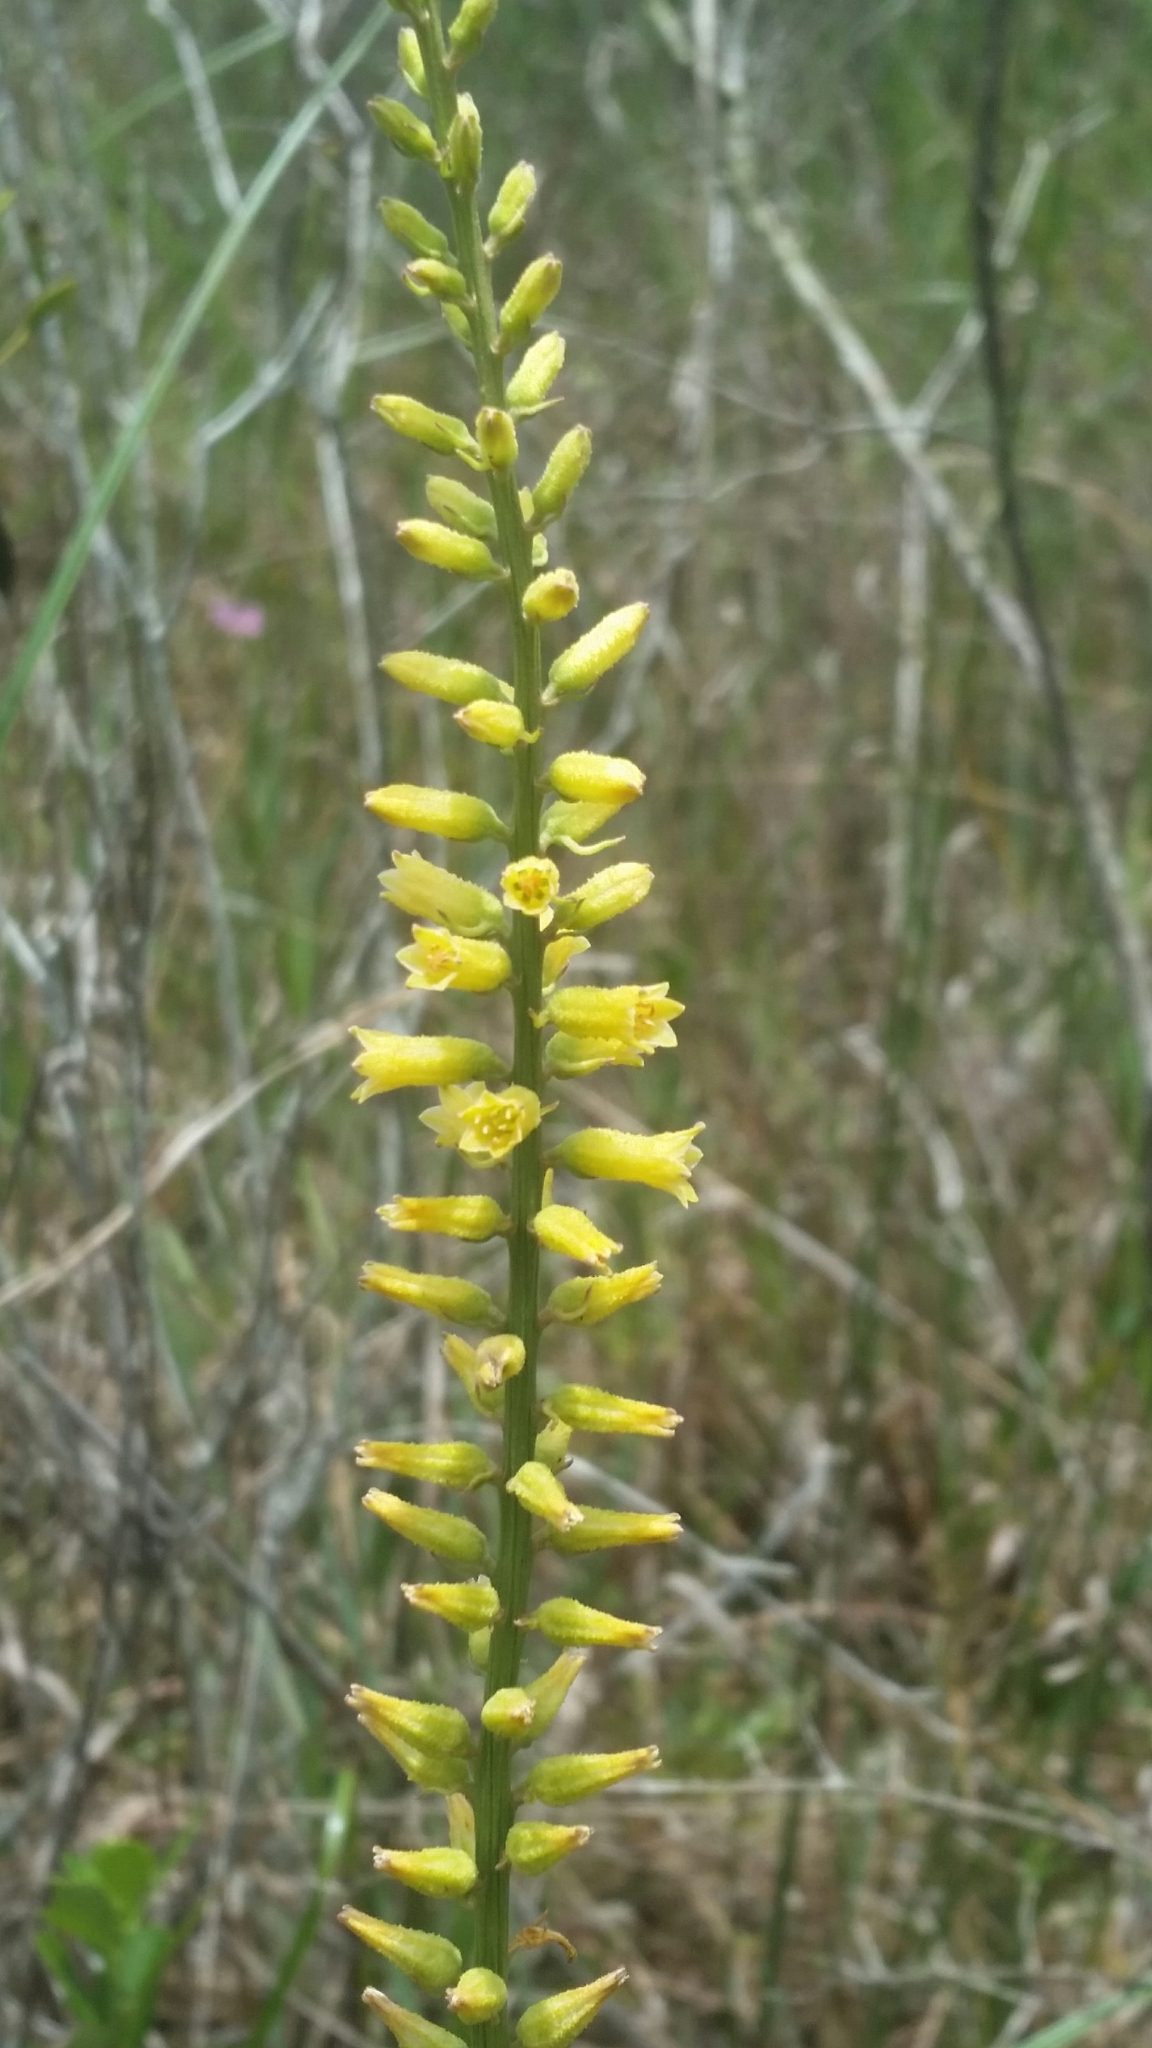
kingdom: Plantae
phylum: Tracheophyta
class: Liliopsida
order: Dioscoreales
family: Nartheciaceae
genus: Aletris
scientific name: Aletris lutea
